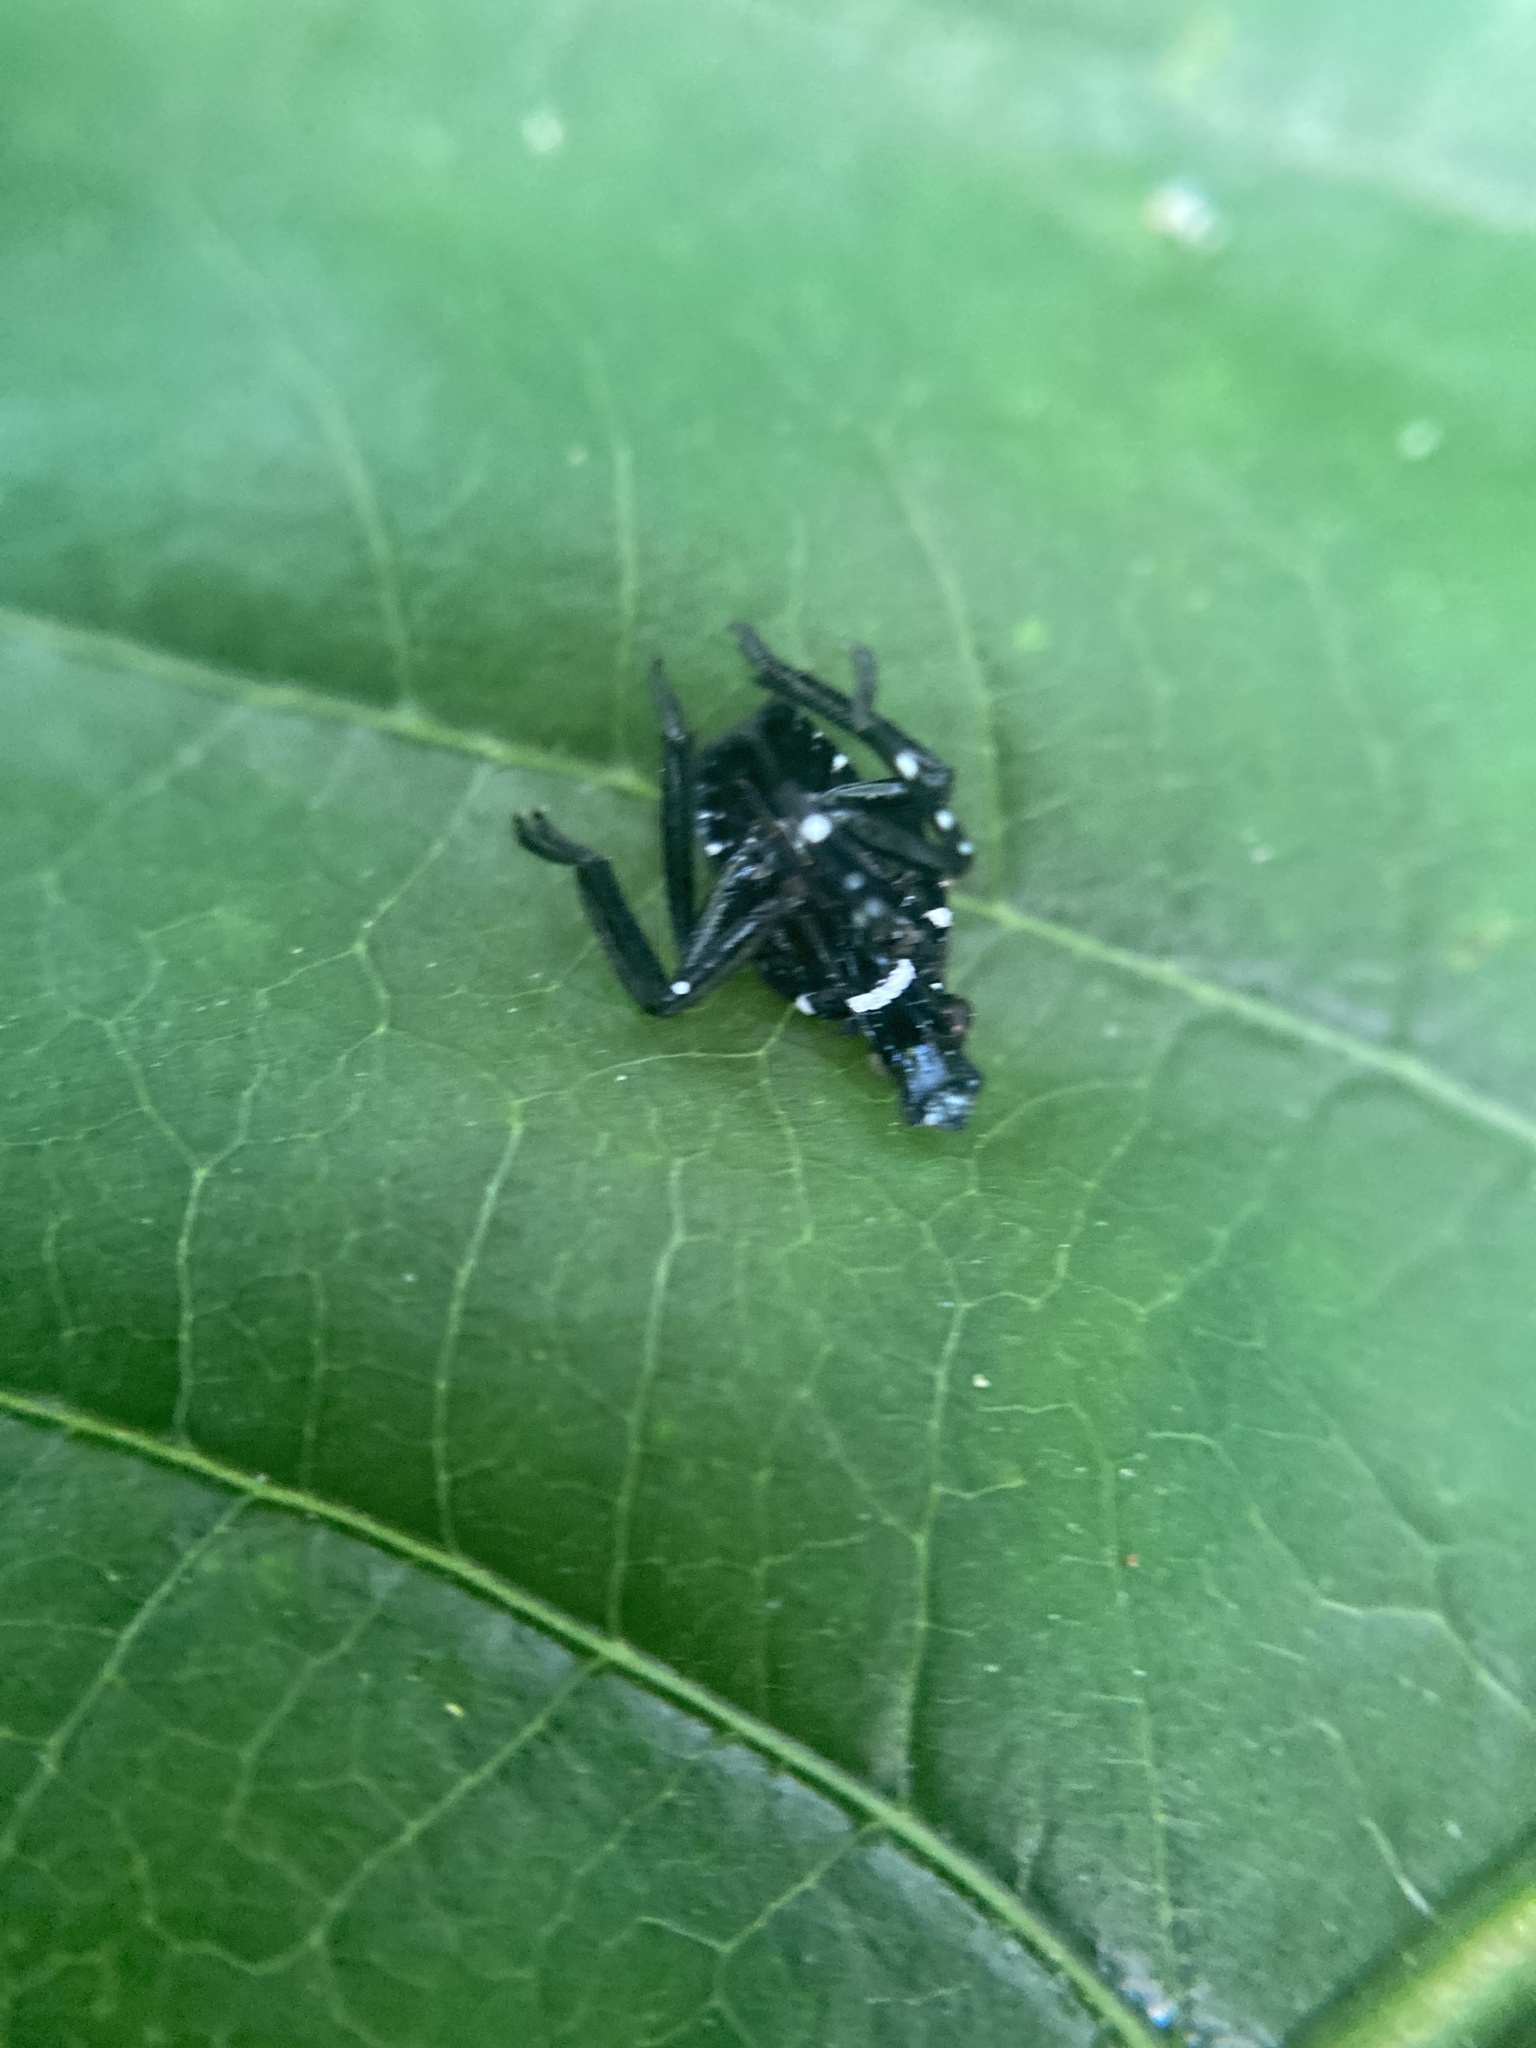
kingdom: Animalia
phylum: Arthropoda
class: Insecta
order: Hemiptera
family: Fulgoridae
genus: Lycorma
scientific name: Lycorma delicatula
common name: Spotted lanternfly
